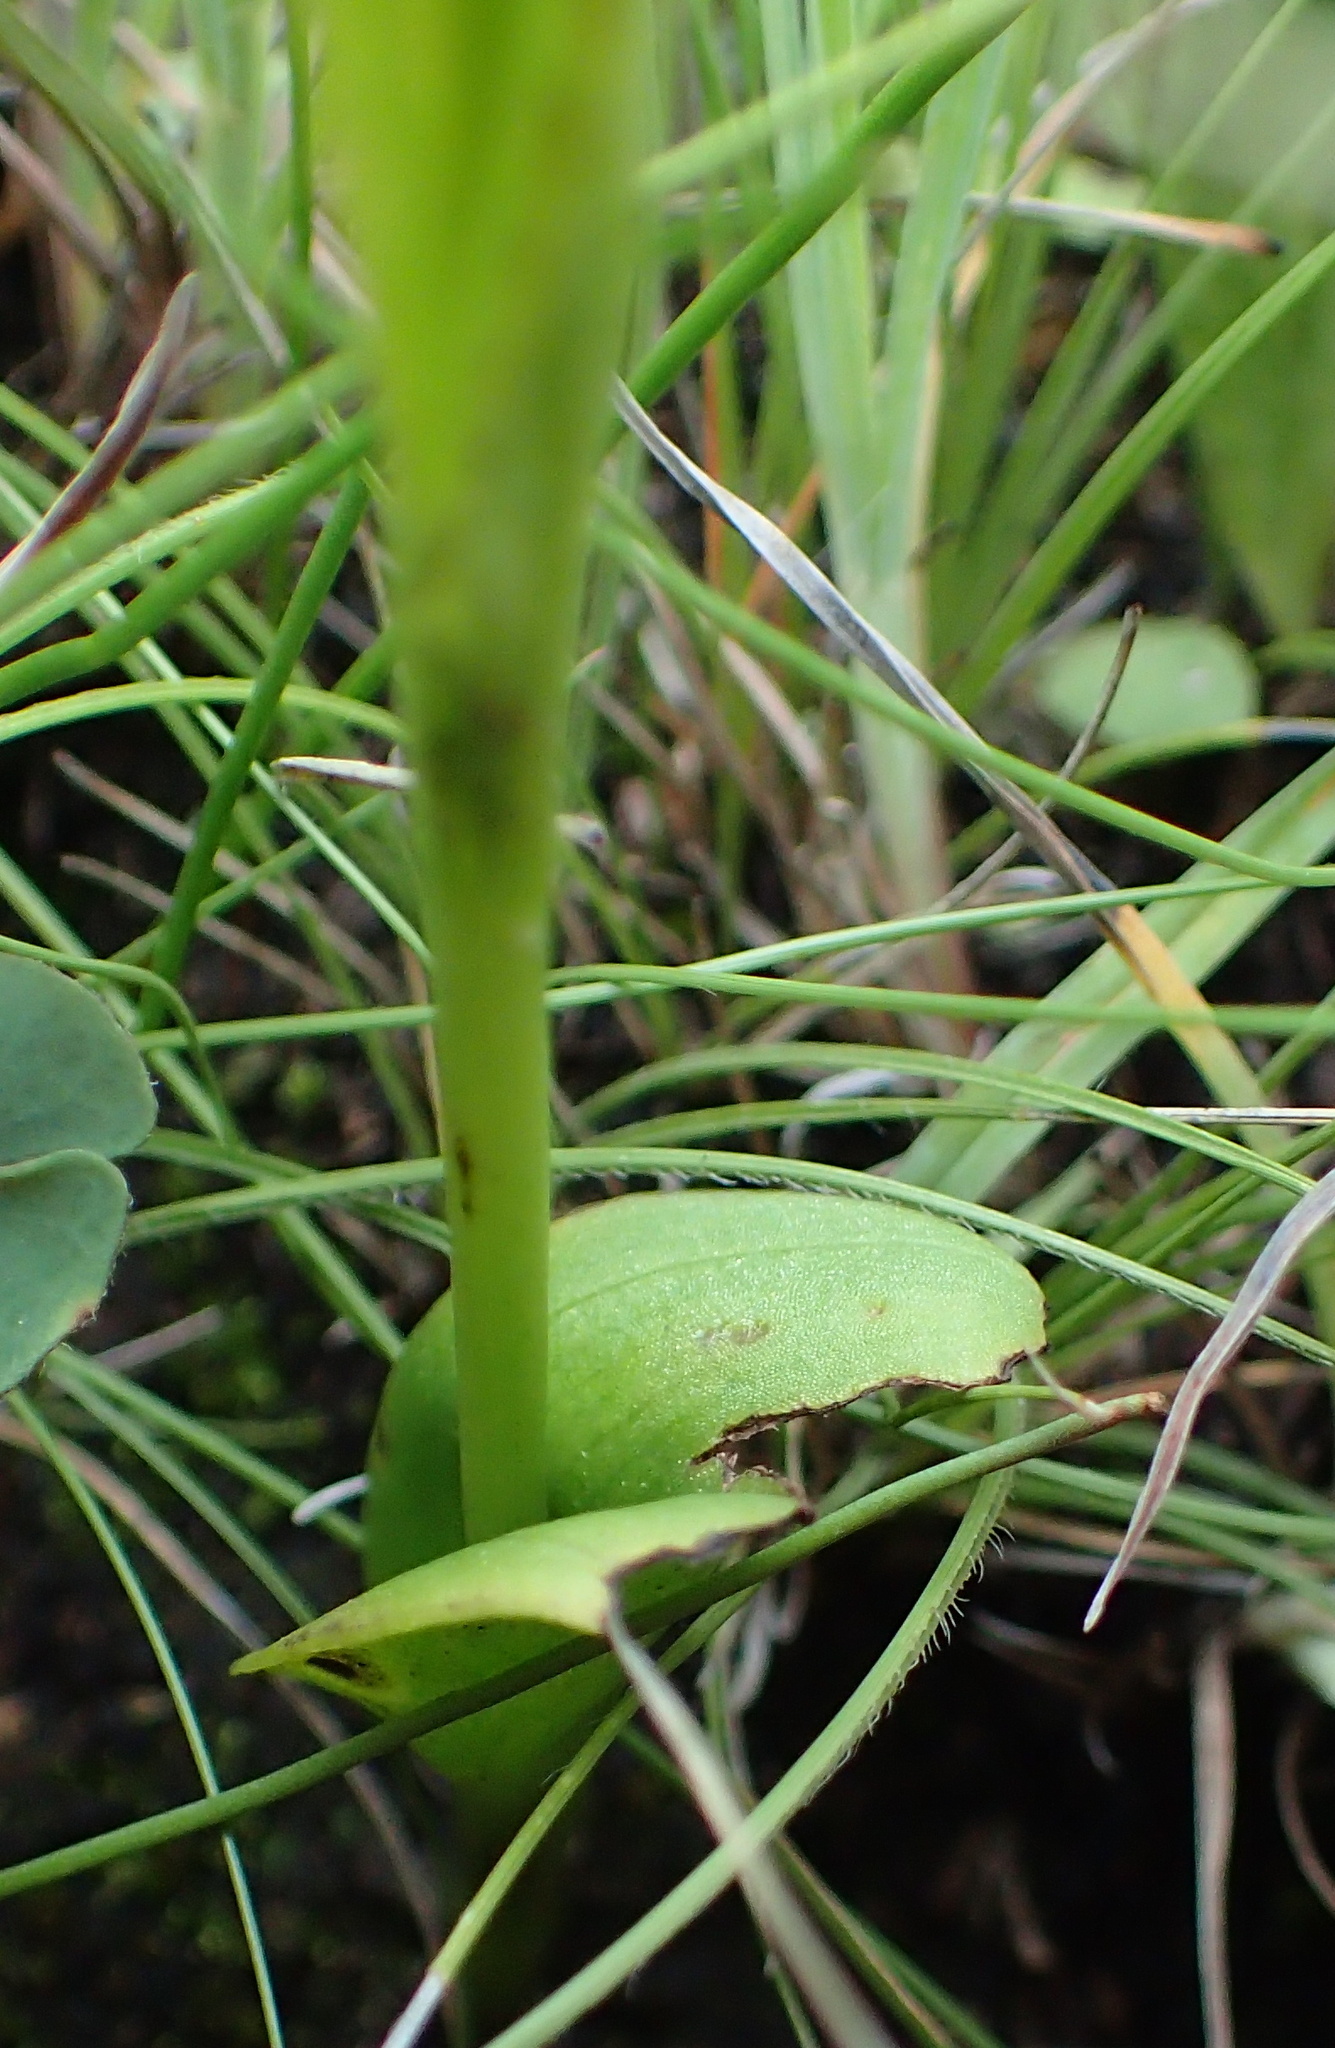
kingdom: Plantae
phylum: Tracheophyta
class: Liliopsida
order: Asparagales
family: Orchidaceae
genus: Pterygodium
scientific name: Pterygodium hastatum
